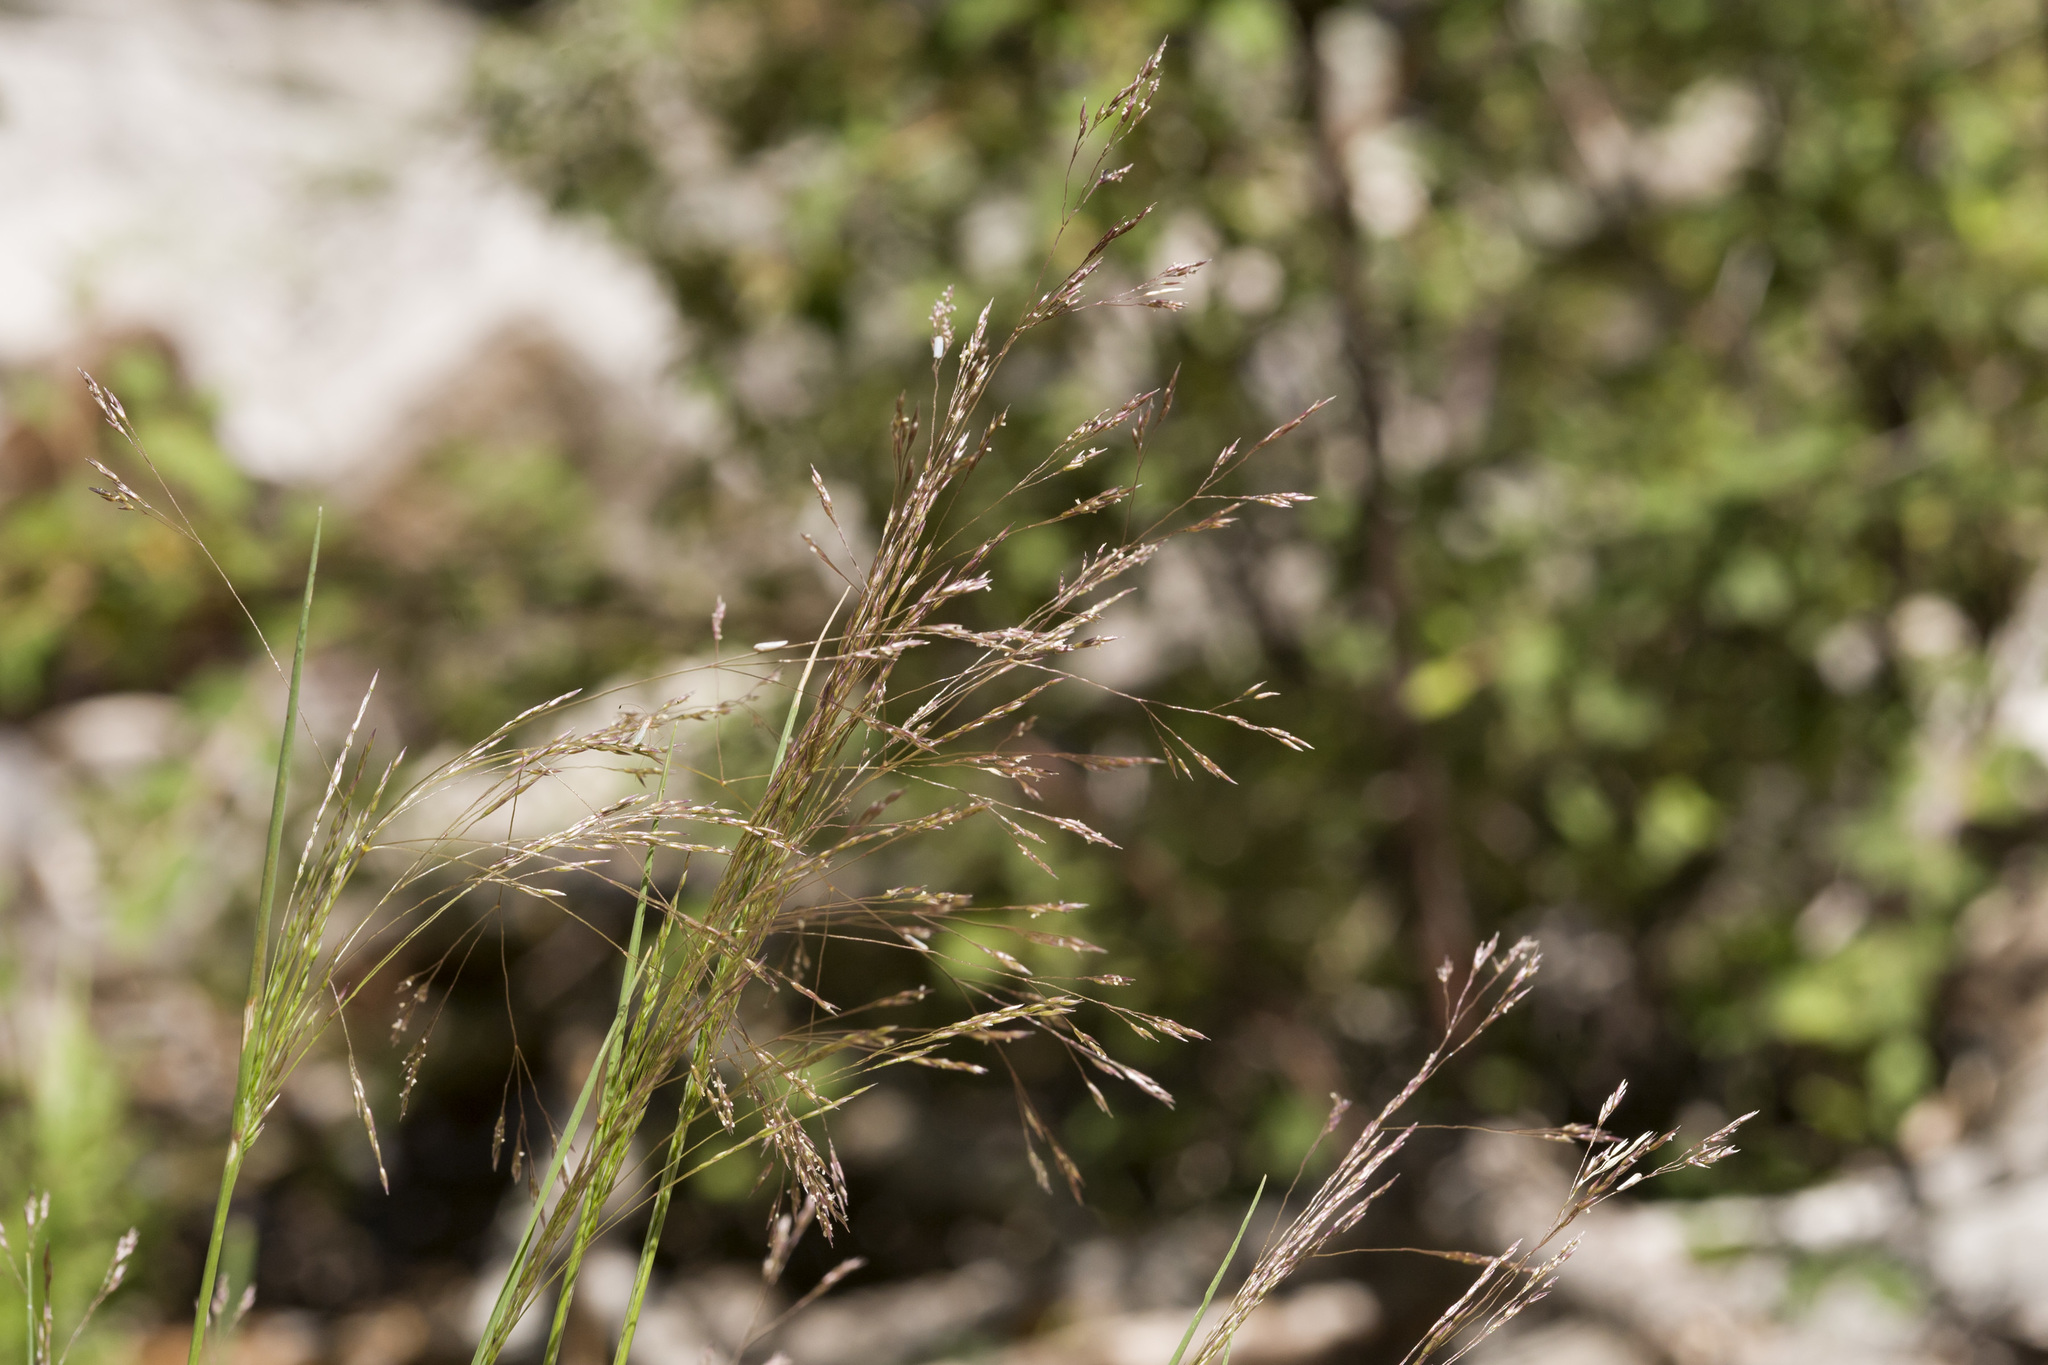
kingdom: Plantae
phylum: Tracheophyta
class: Liliopsida
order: Poales
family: Poaceae
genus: Agrostis
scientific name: Agrostis scabra
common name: Rough bent
